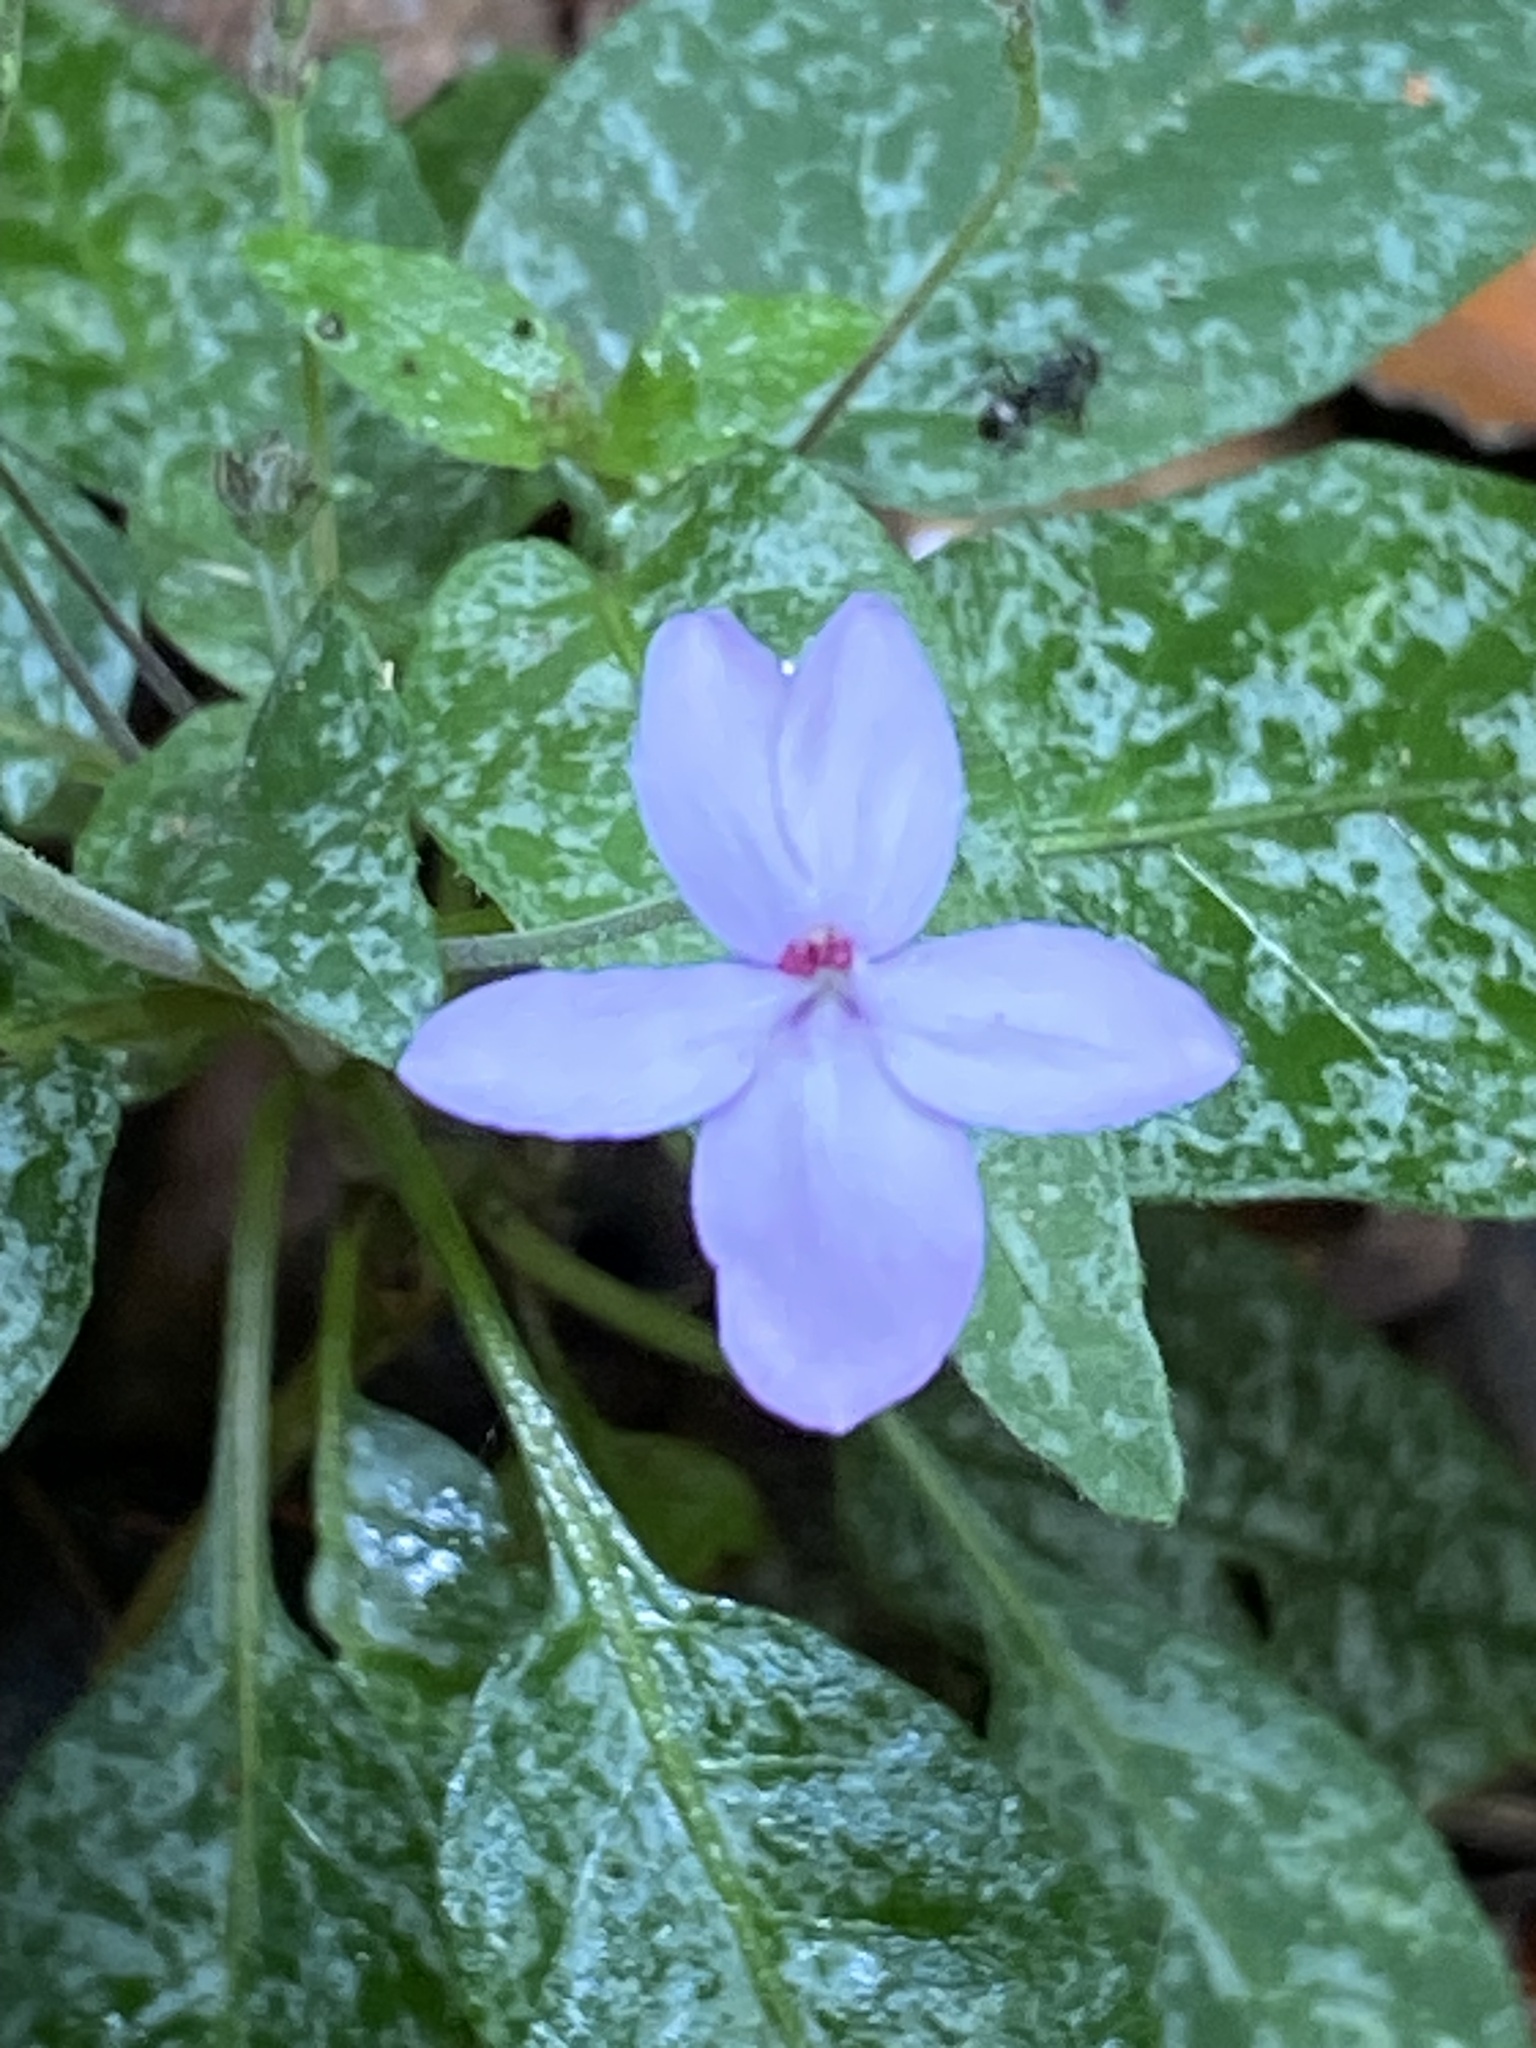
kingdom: Plantae
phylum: Tracheophyta
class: Magnoliopsida
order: Lamiales
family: Acanthaceae
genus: Pseuderanthemum
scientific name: Pseuderanthemum variabile
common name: Night and afternoon
